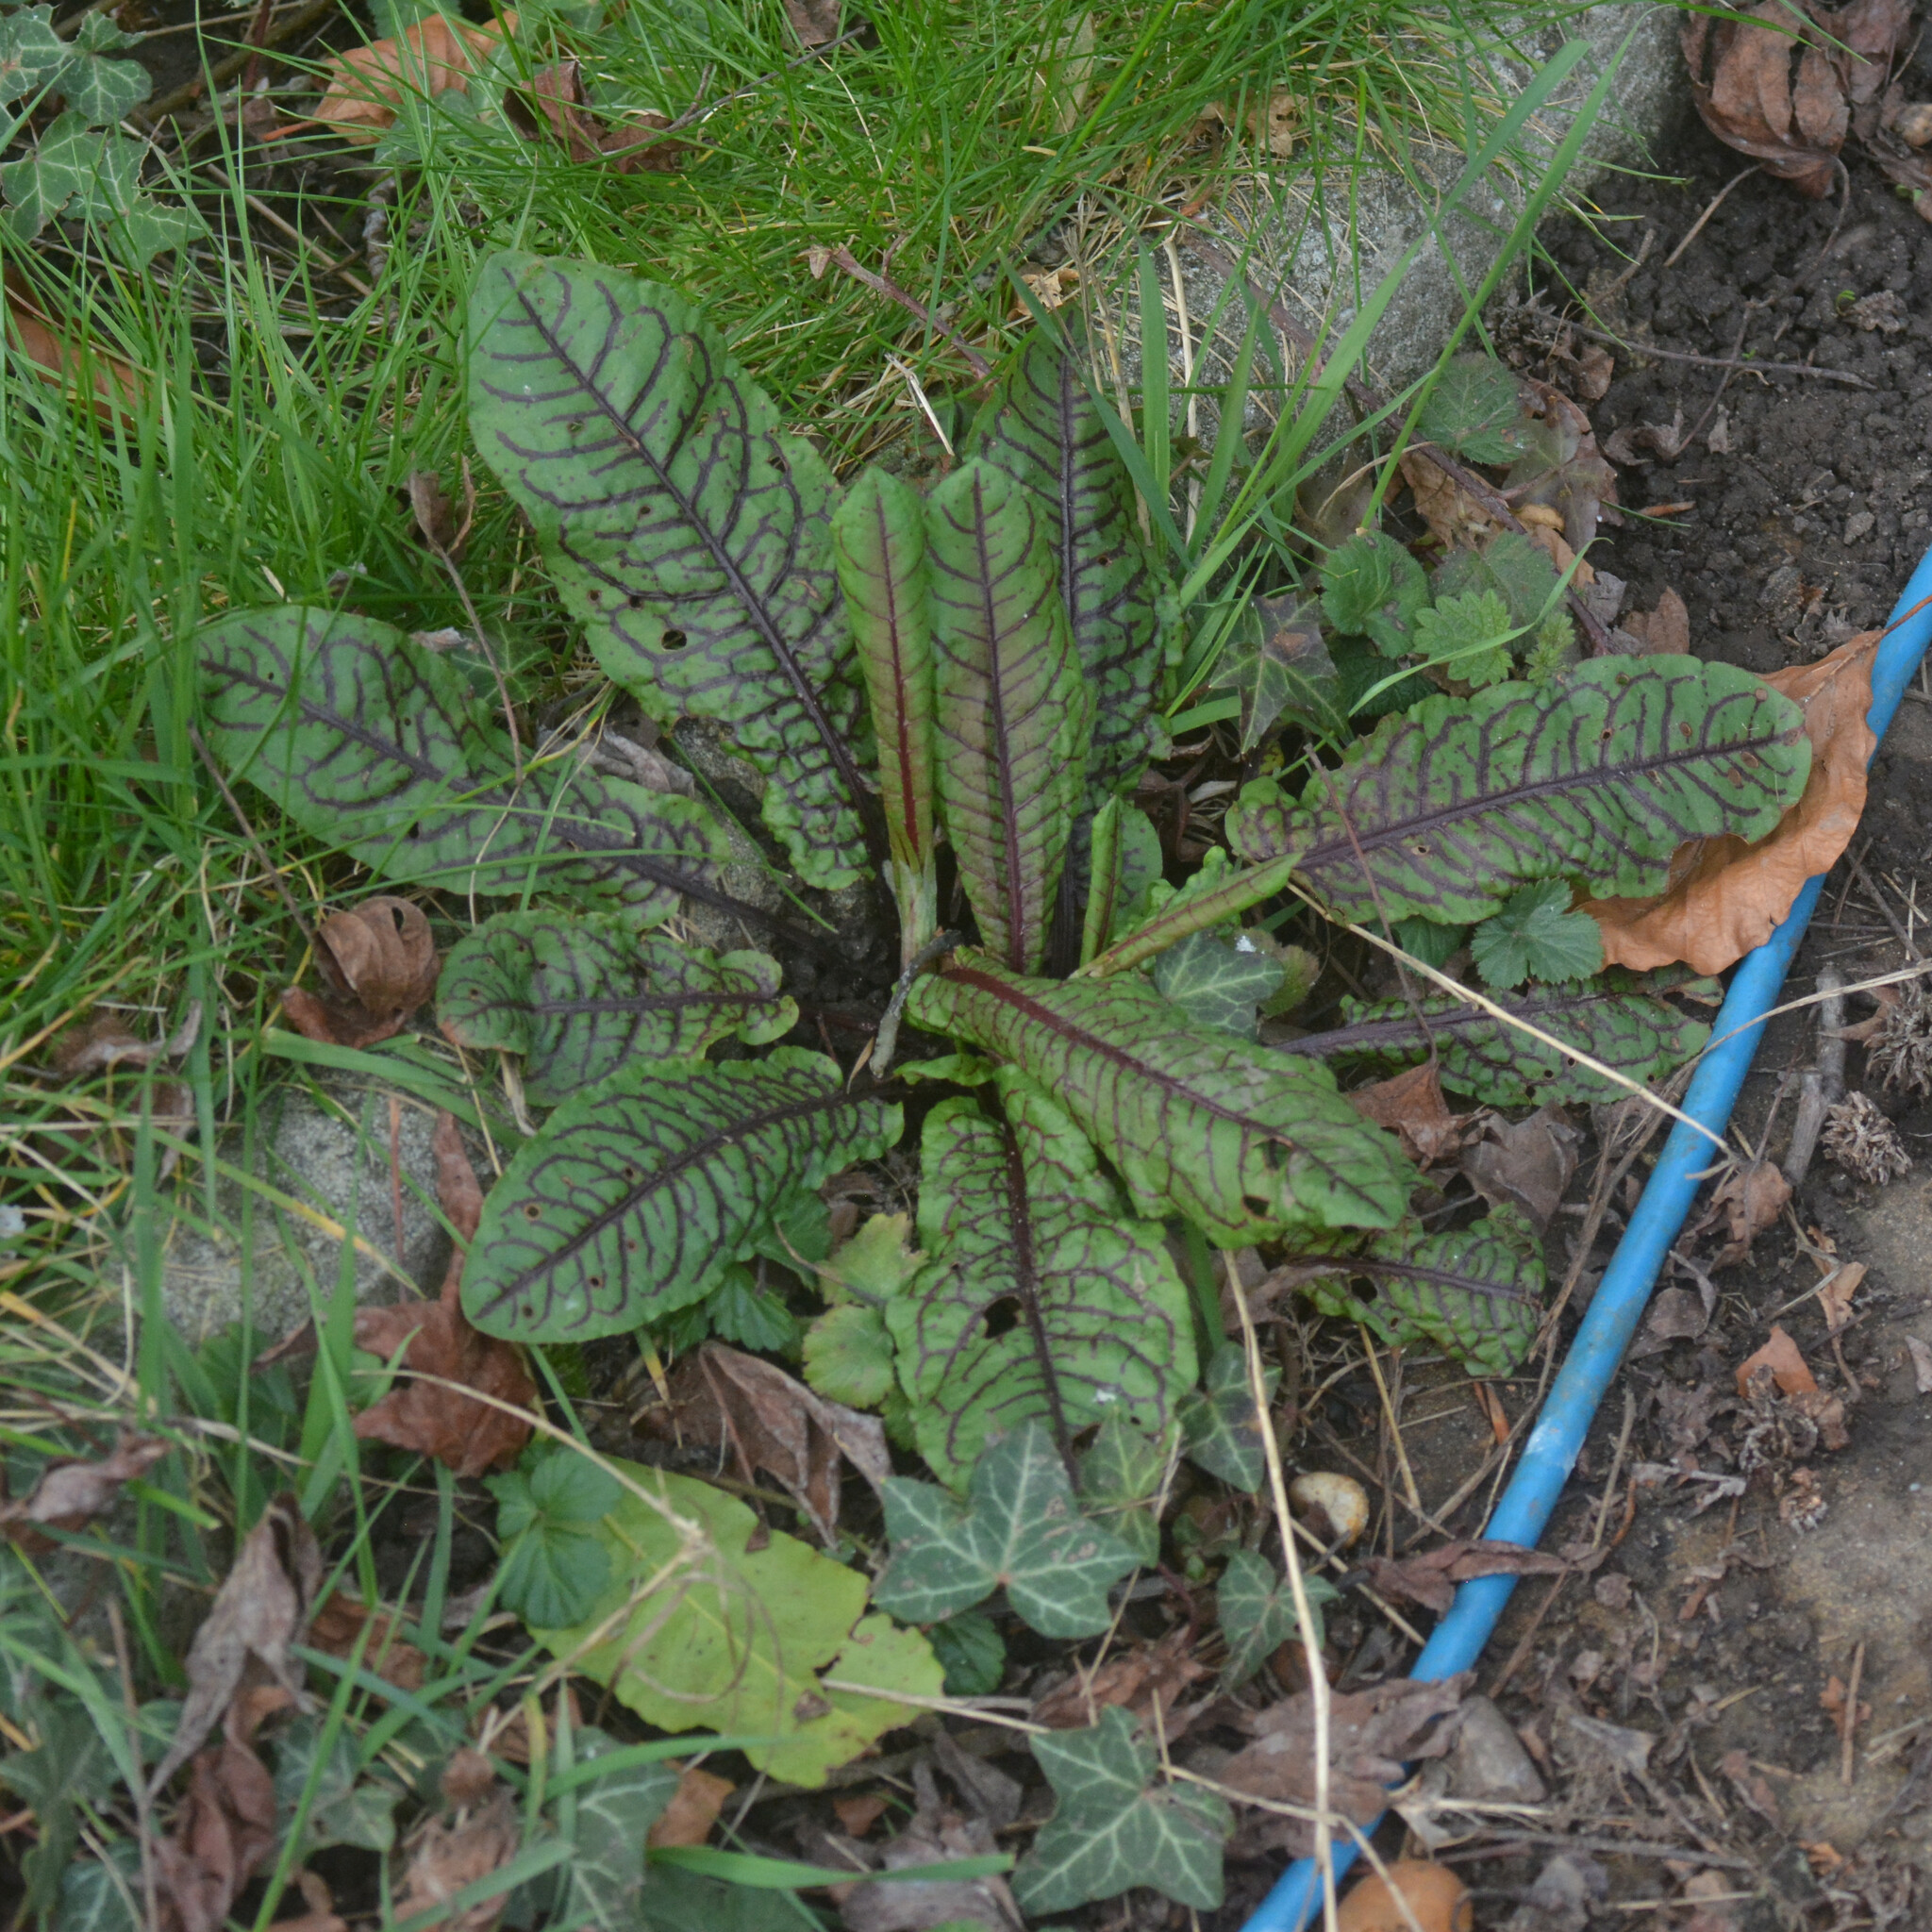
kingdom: Plantae
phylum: Tracheophyta
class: Magnoliopsida
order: Caryophyllales
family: Polygonaceae
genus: Rumex
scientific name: Rumex sanguineus
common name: Wood dock
